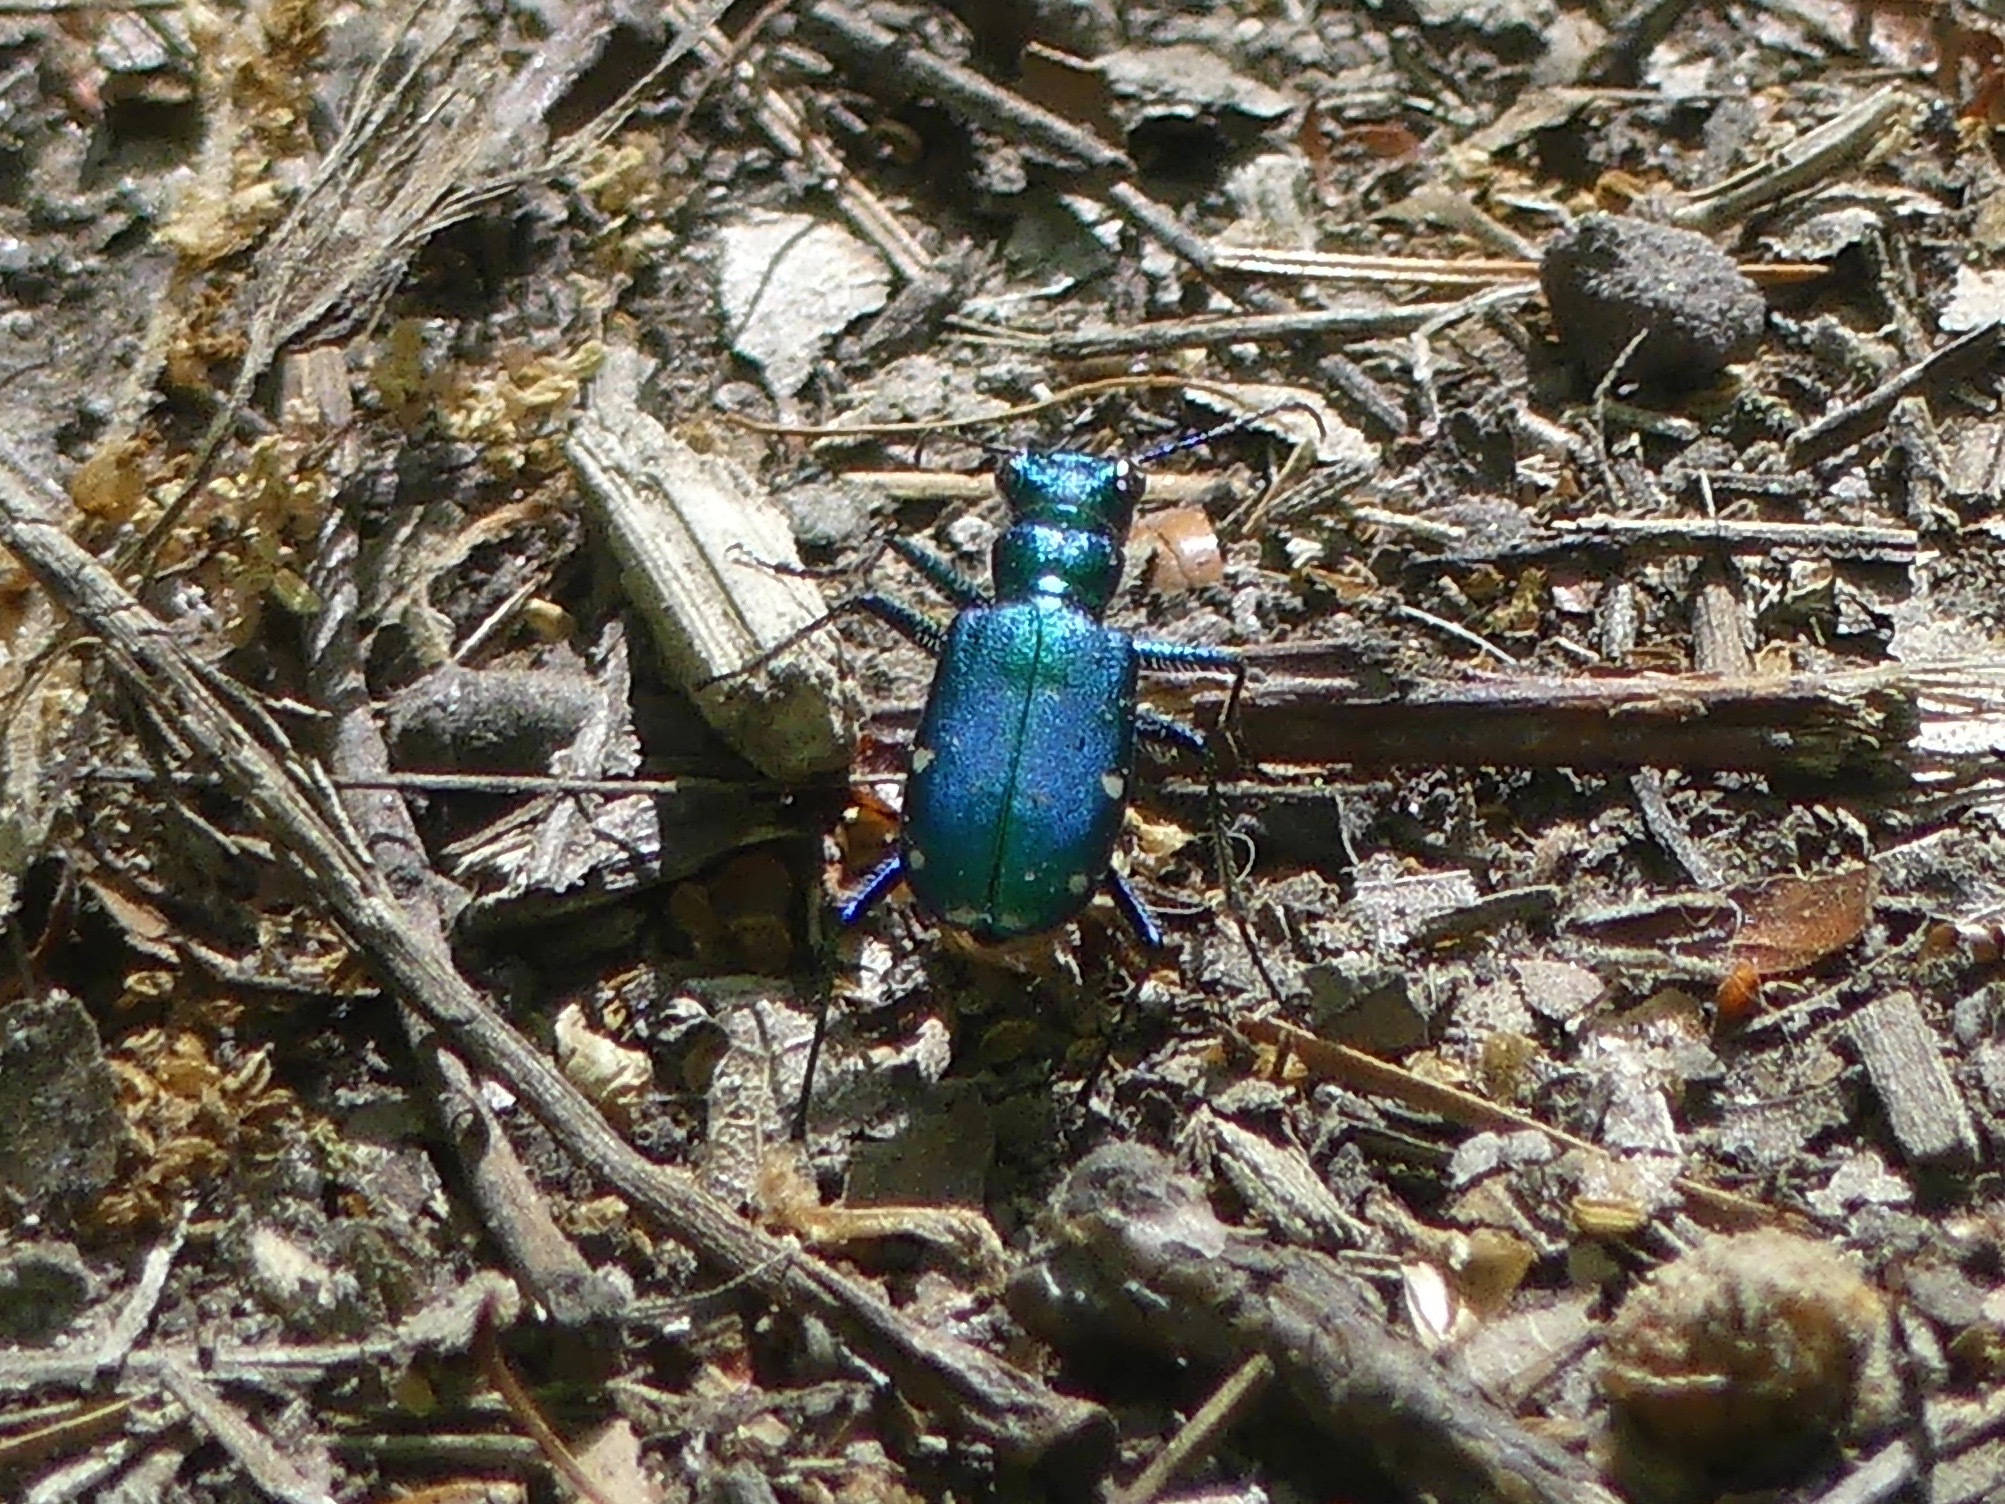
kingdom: Animalia
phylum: Arthropoda
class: Insecta
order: Coleoptera
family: Carabidae
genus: Cicindela
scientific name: Cicindela sexguttata
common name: Six-spotted tiger beetle
